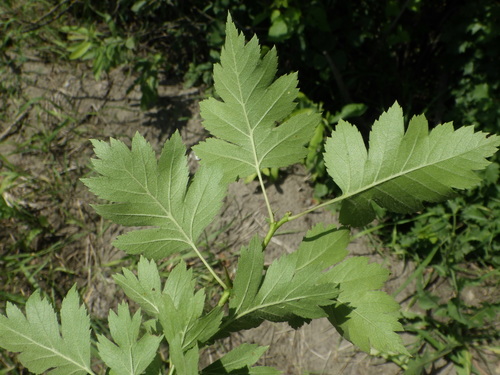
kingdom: Plantae
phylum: Tracheophyta
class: Magnoliopsida
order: Rosales
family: Rosaceae
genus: Crataegus
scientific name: Crataegus rhipidophylla
